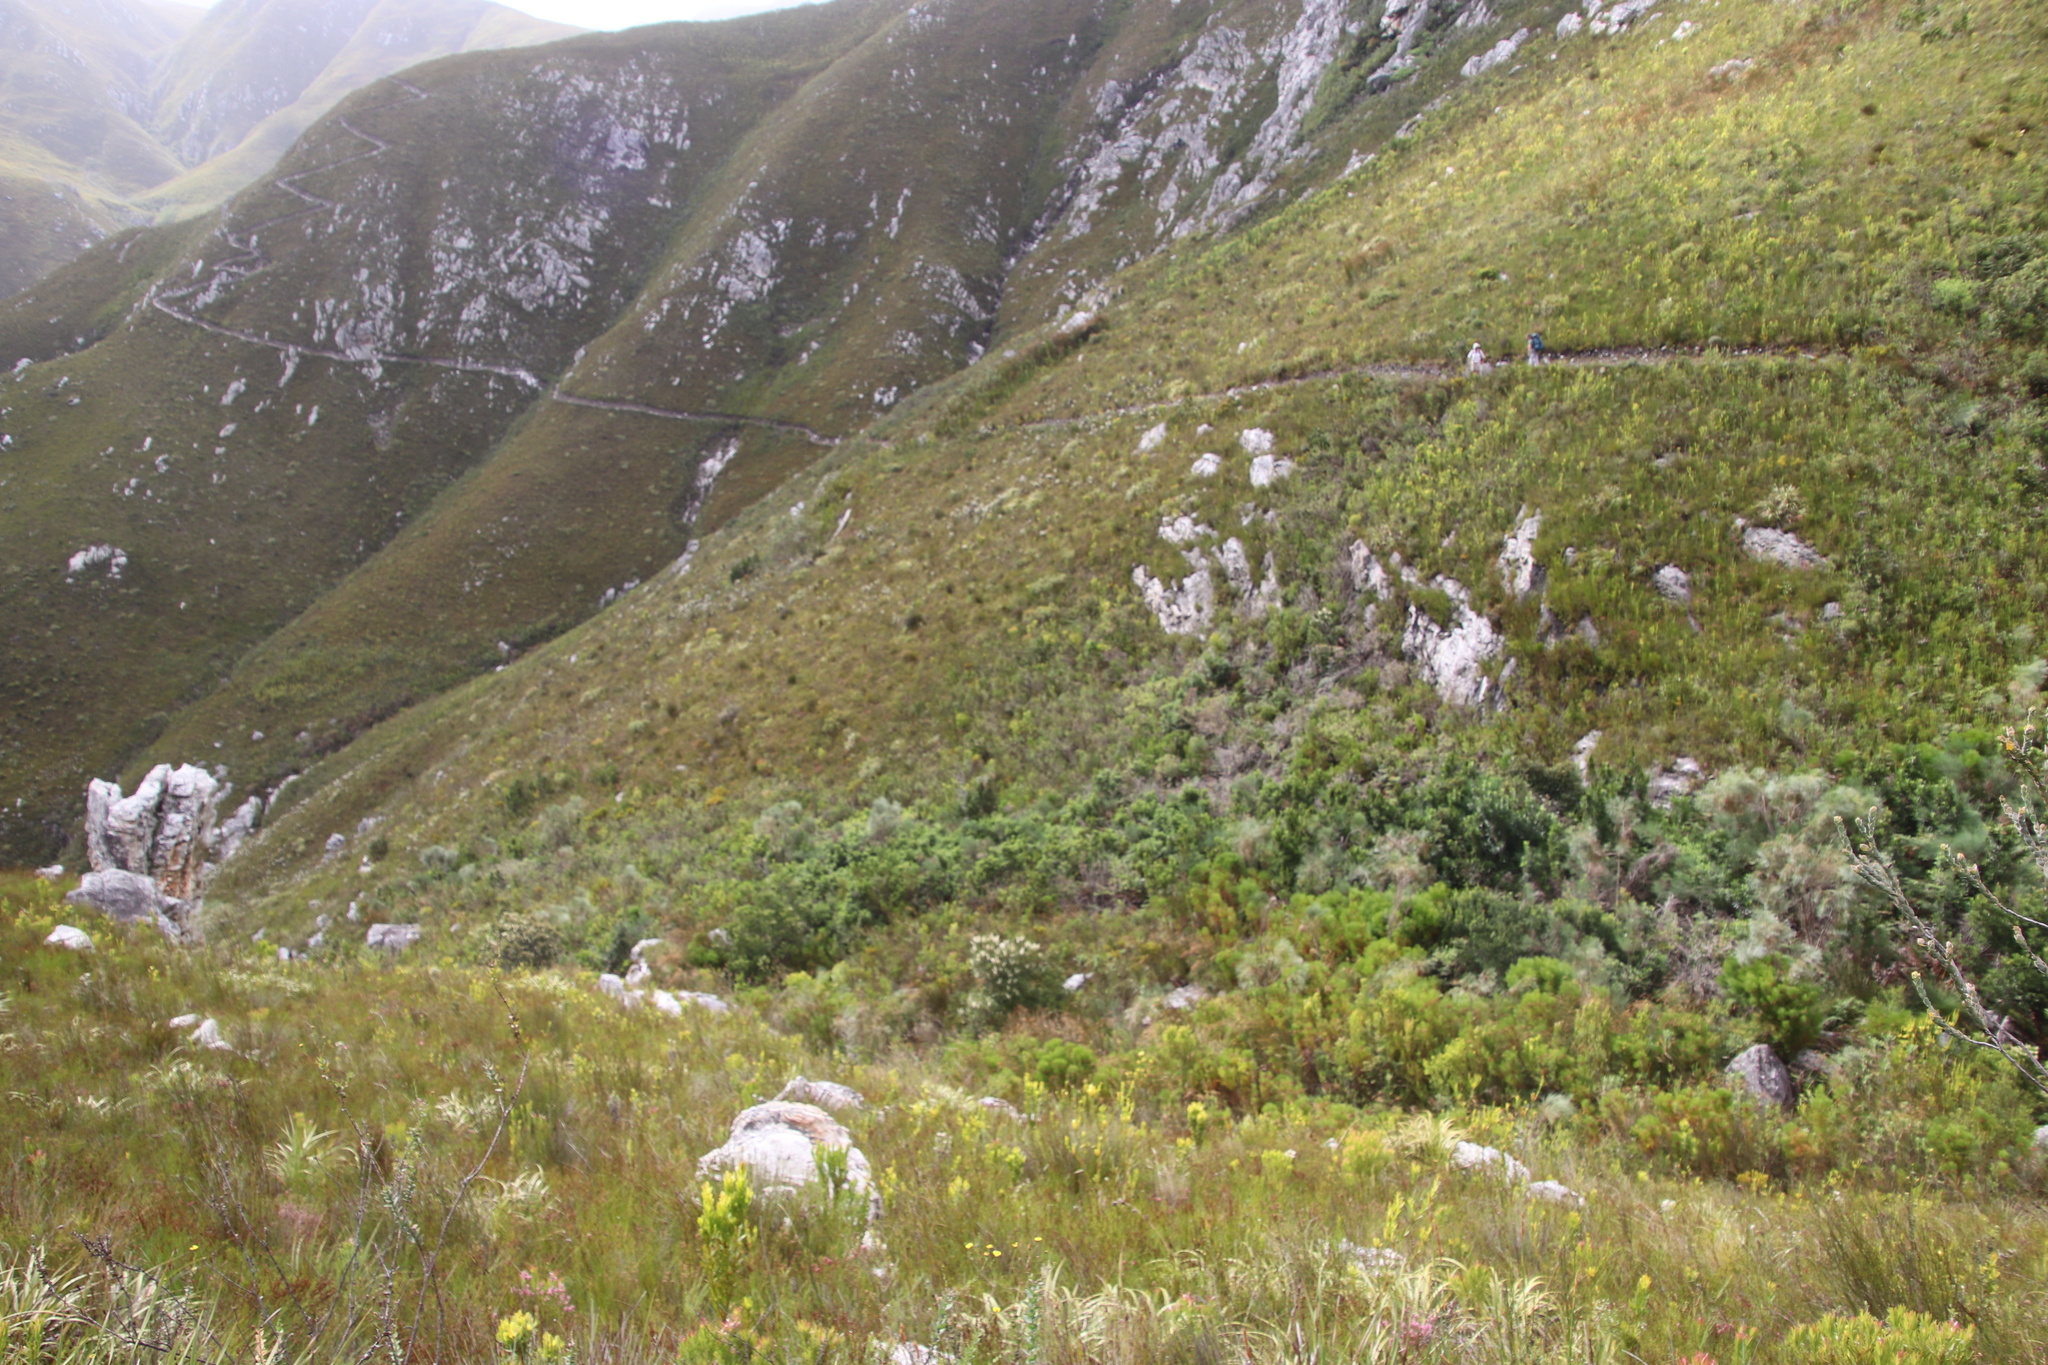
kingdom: Plantae
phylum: Tracheophyta
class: Magnoliopsida
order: Oxalidales
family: Cunoniaceae
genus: Cunonia
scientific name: Cunonia capensis
